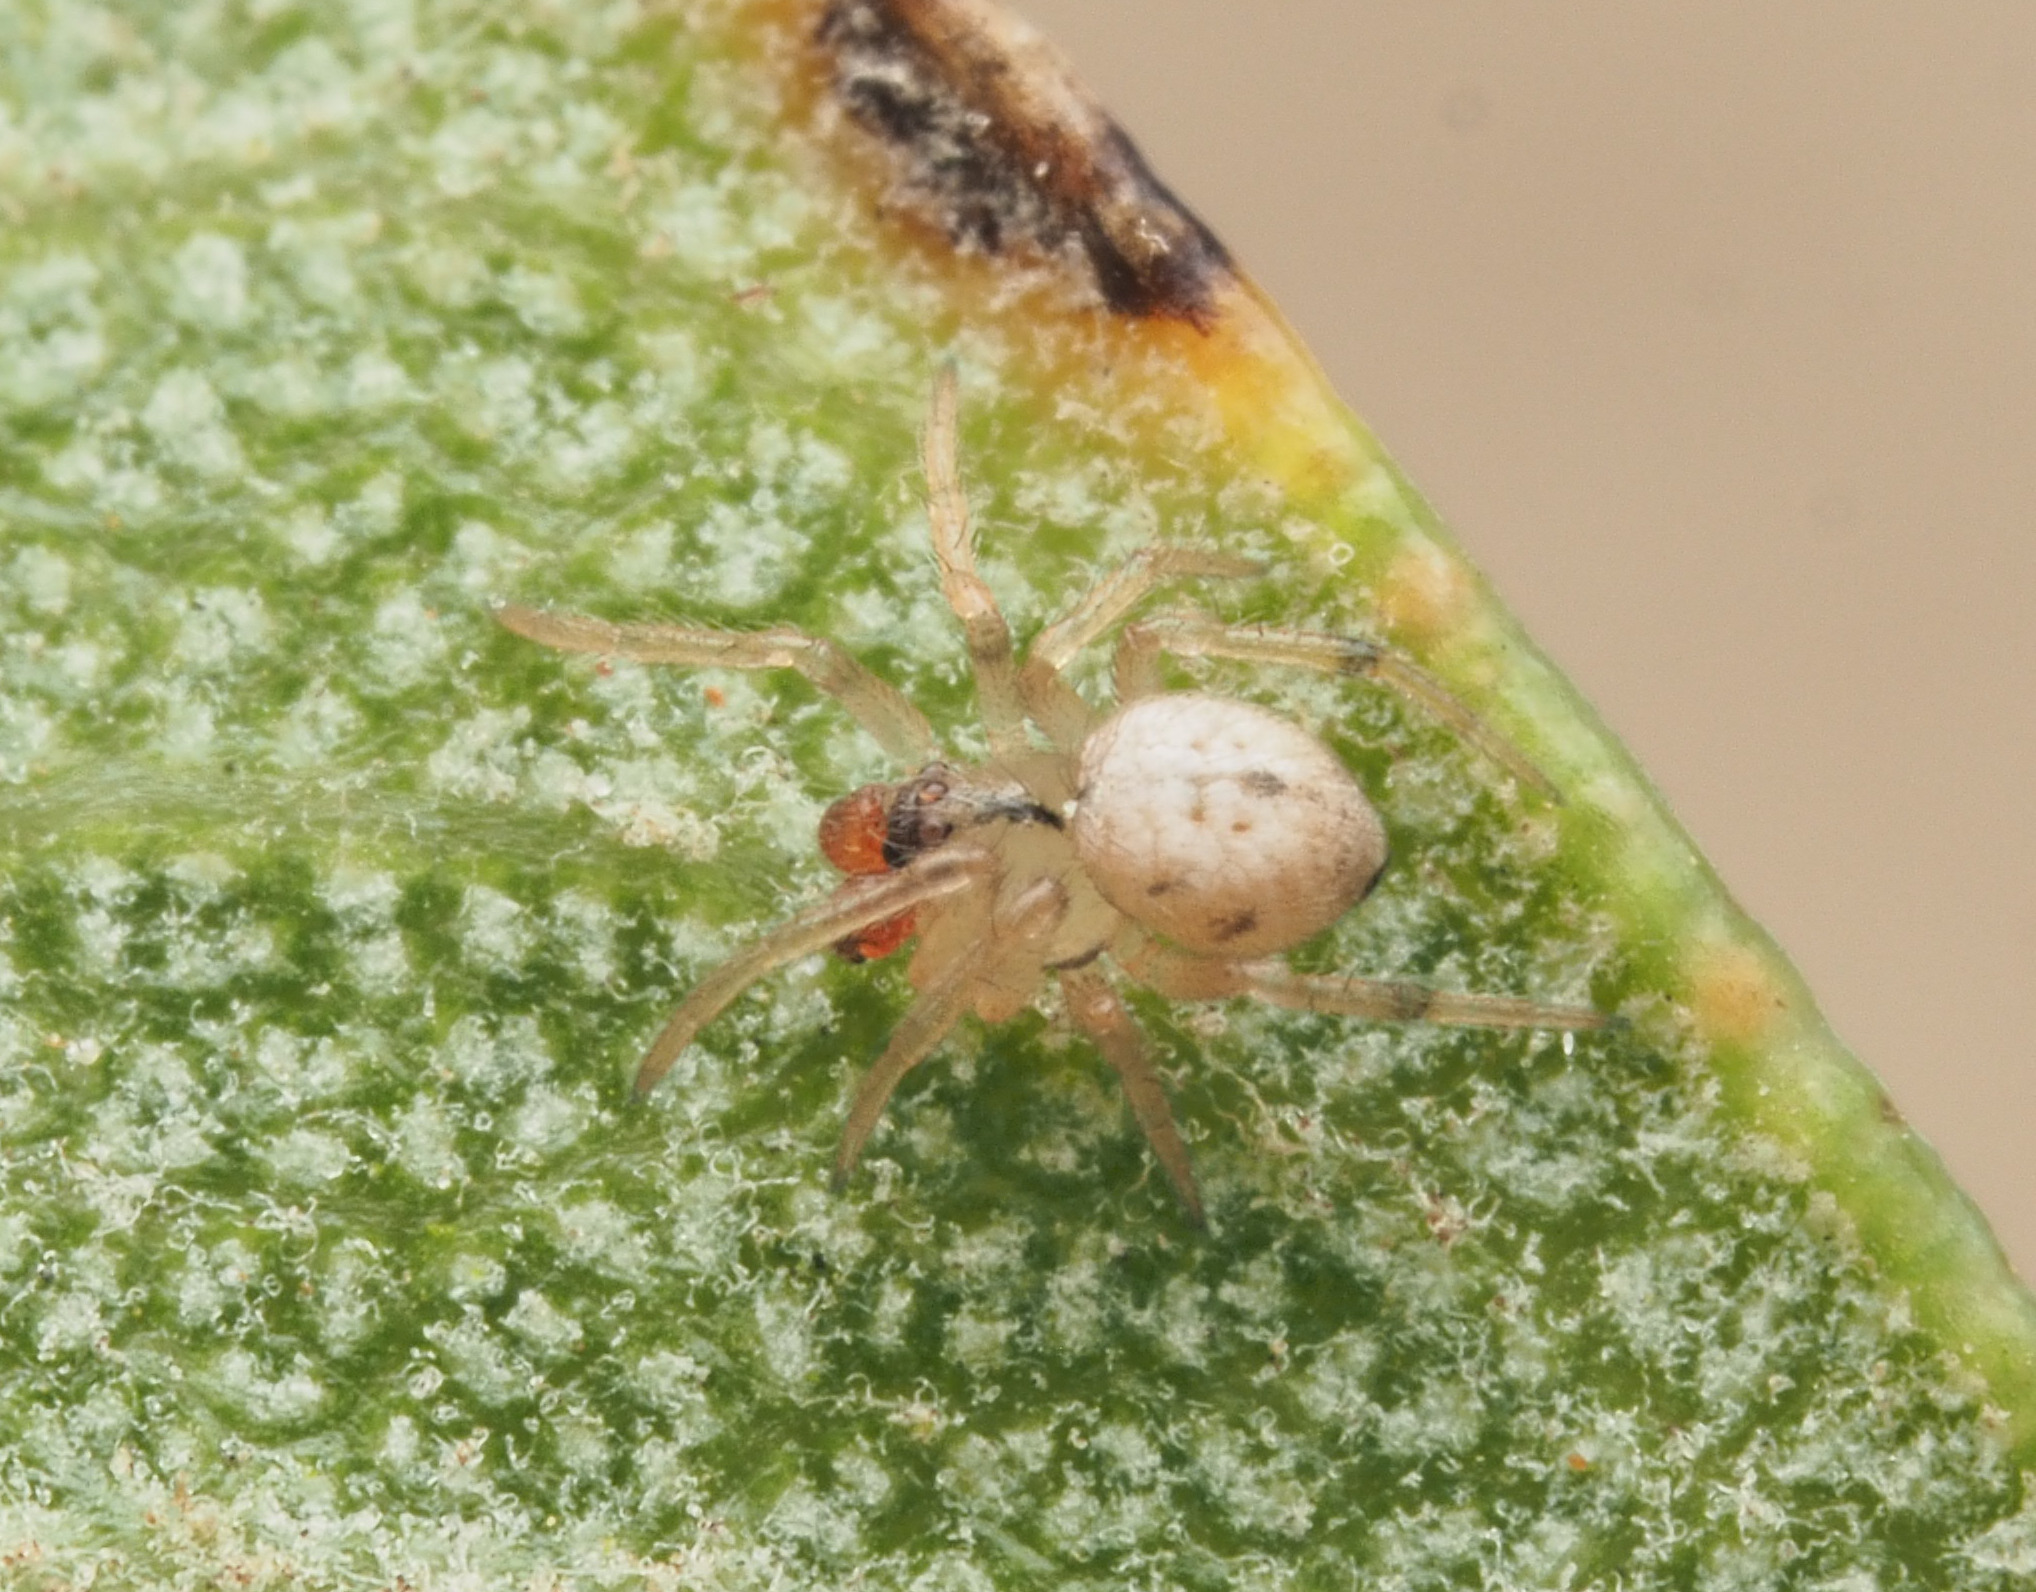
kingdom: Animalia
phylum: Arthropoda
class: Arachnida
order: Araneae
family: Theridiidae
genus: Phycosoma
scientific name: Phycosoma
